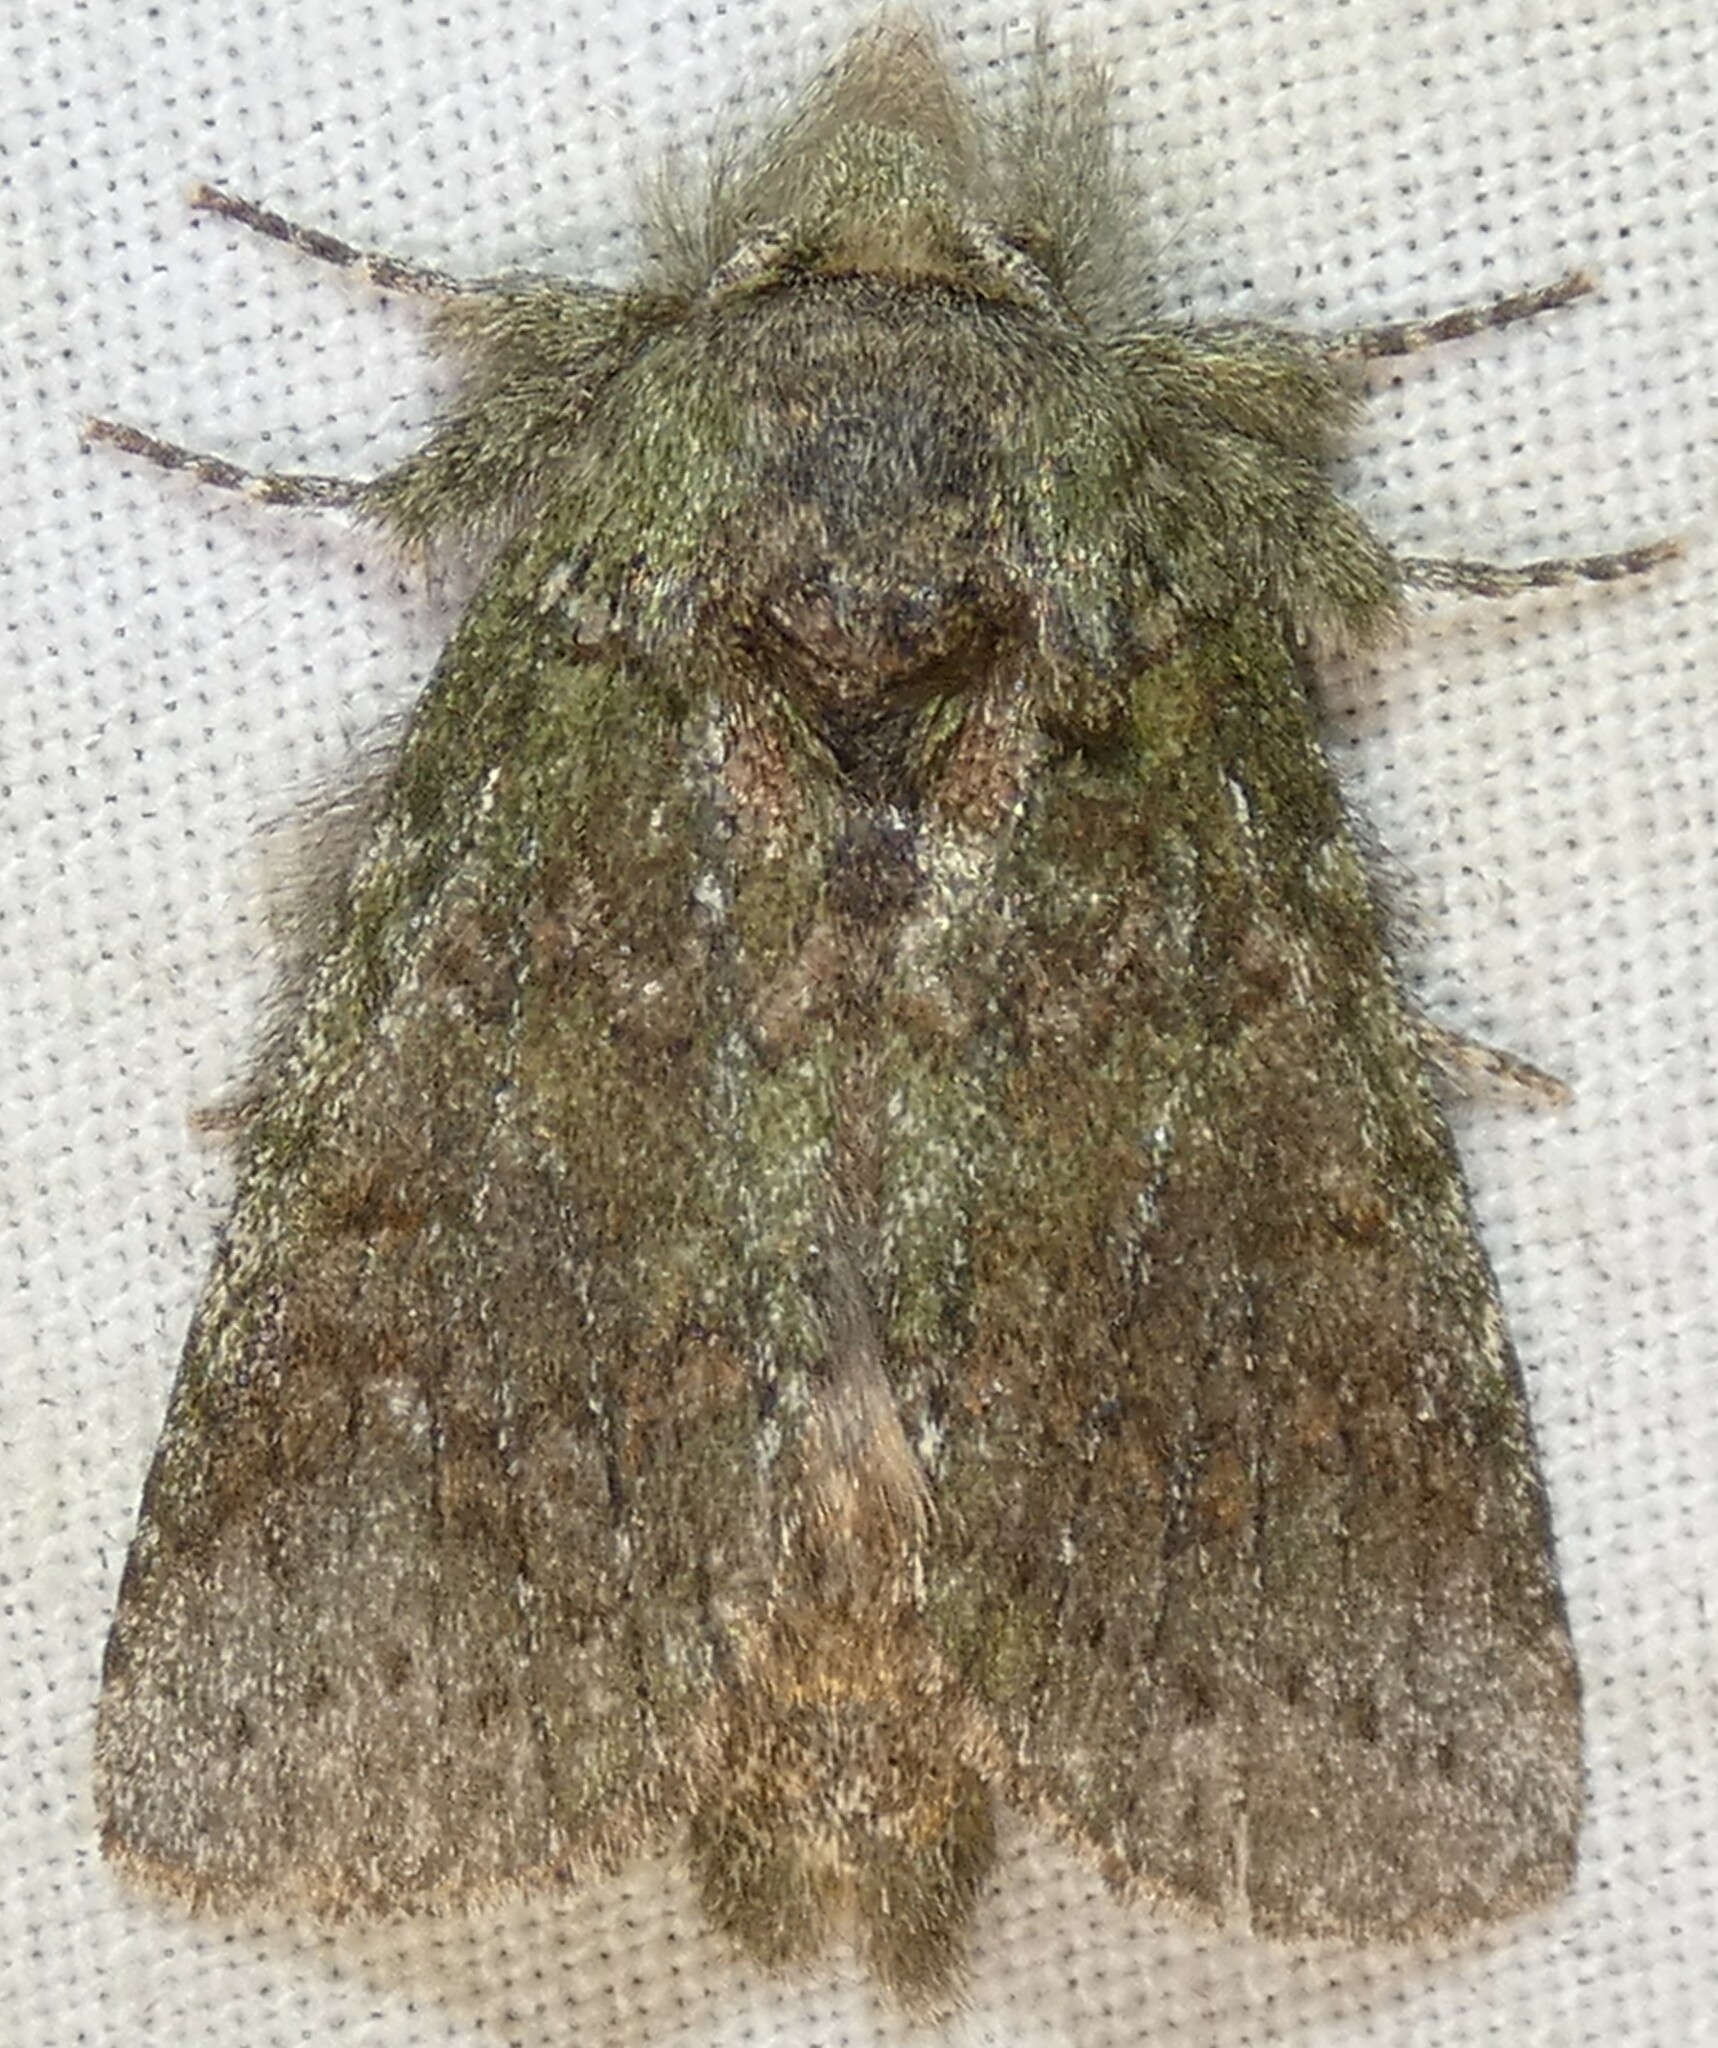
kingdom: Animalia
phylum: Arthropoda
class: Insecta
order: Lepidoptera
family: Notodontidae
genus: Disphragis
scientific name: Disphragis Cecrita guttivitta
